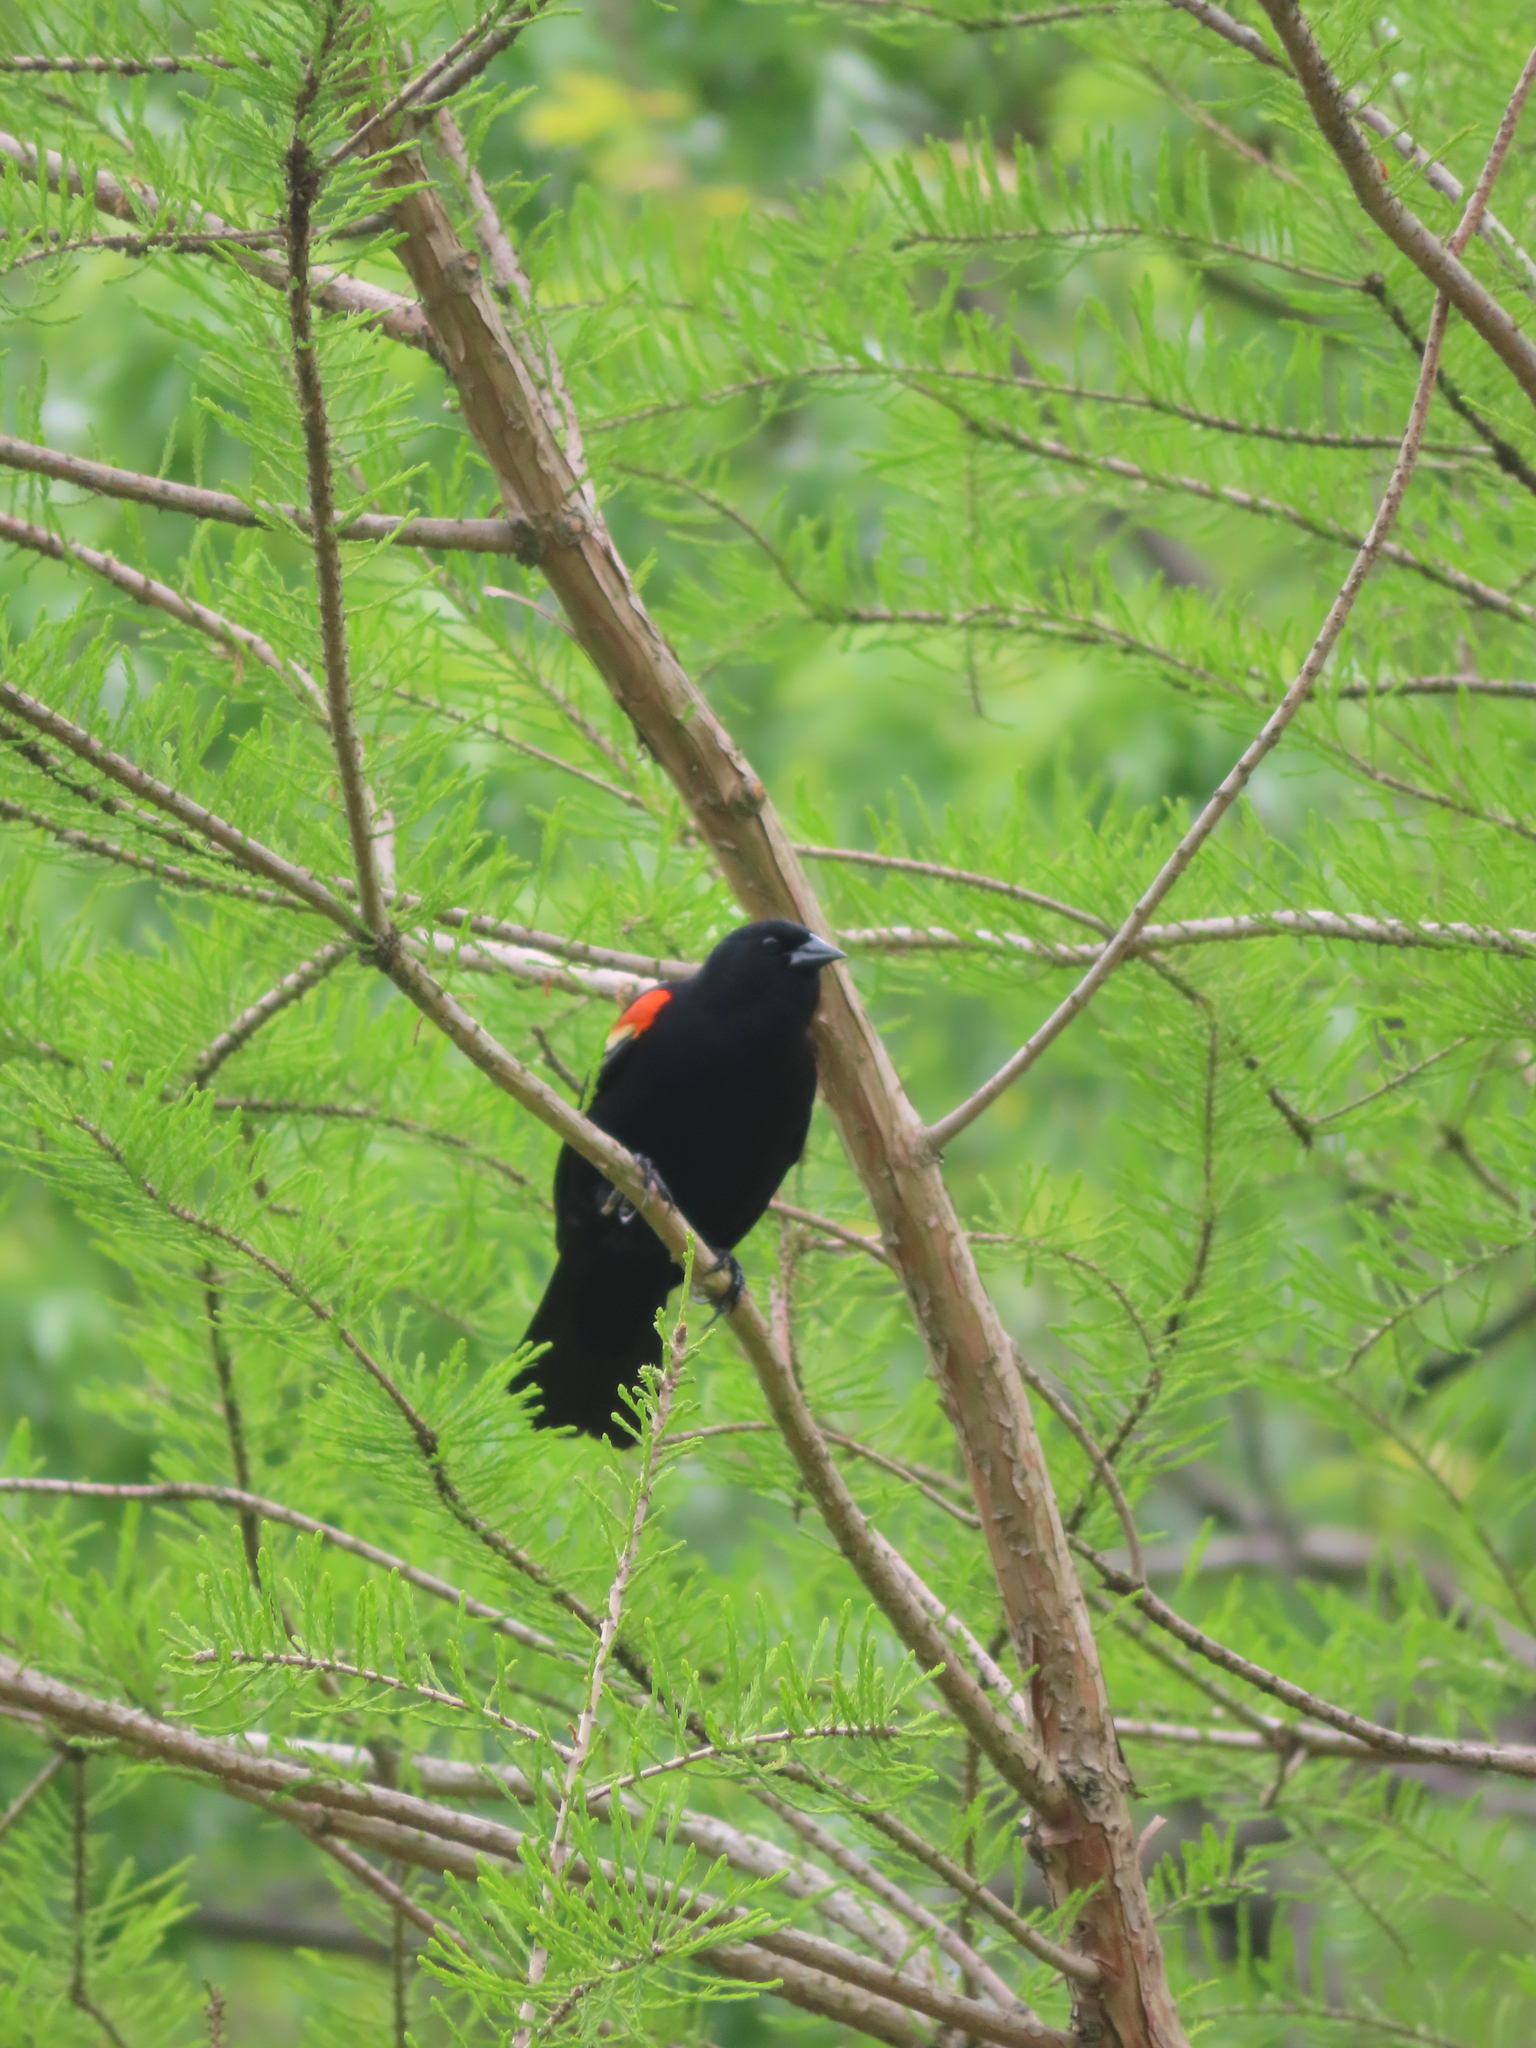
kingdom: Animalia
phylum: Chordata
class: Aves
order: Passeriformes
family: Icteridae
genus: Agelaius
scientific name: Agelaius phoeniceus
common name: Red-winged blackbird
